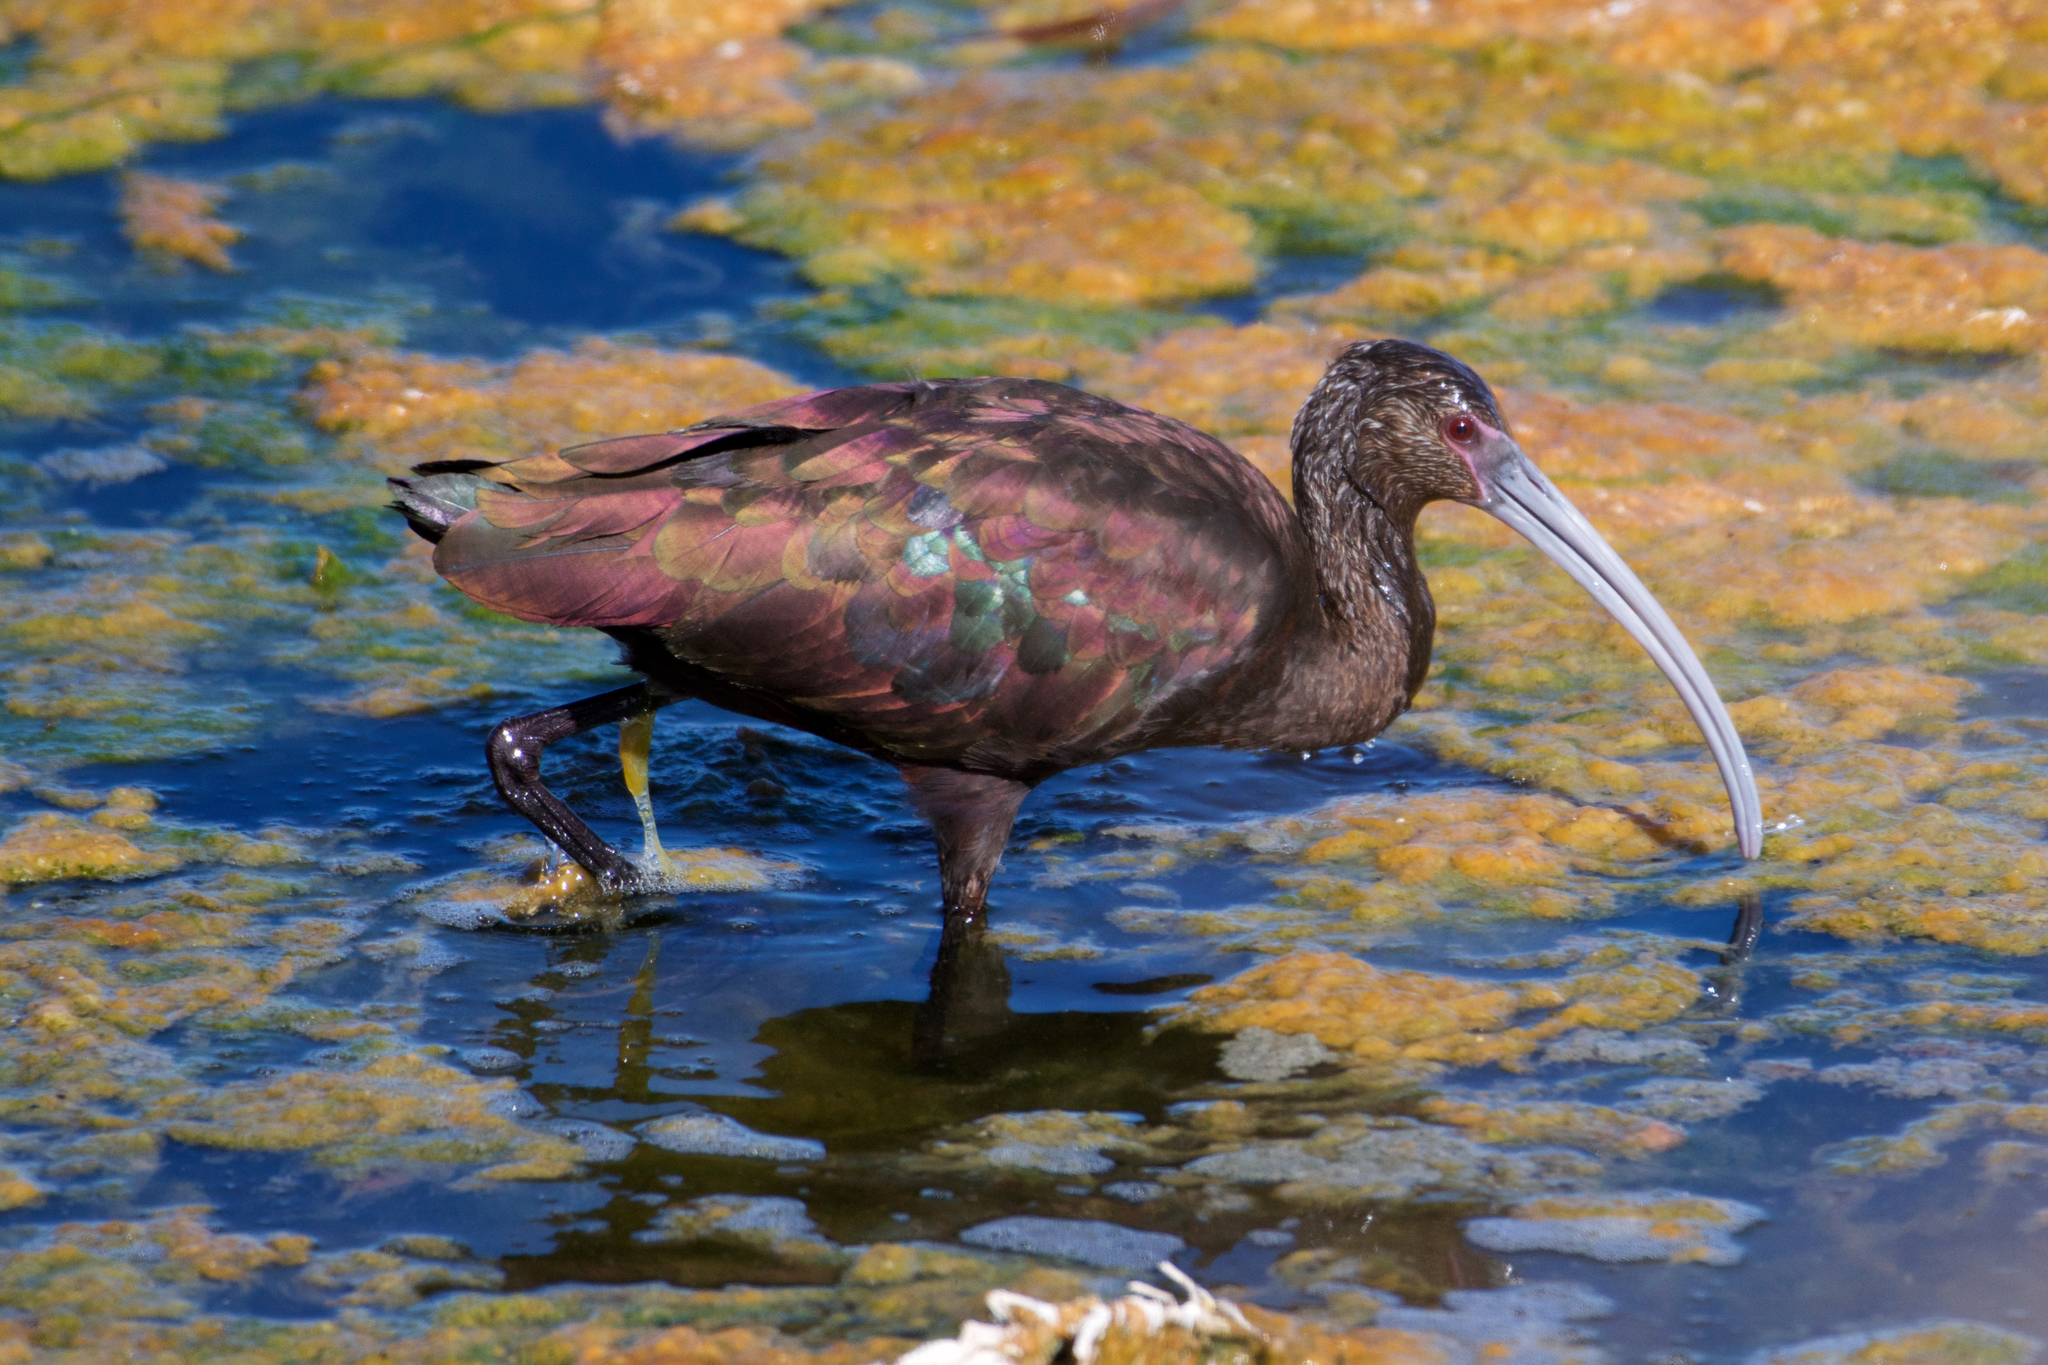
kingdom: Animalia
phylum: Chordata
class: Aves
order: Pelecaniformes
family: Threskiornithidae
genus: Plegadis
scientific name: Plegadis chihi
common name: White-faced ibis
